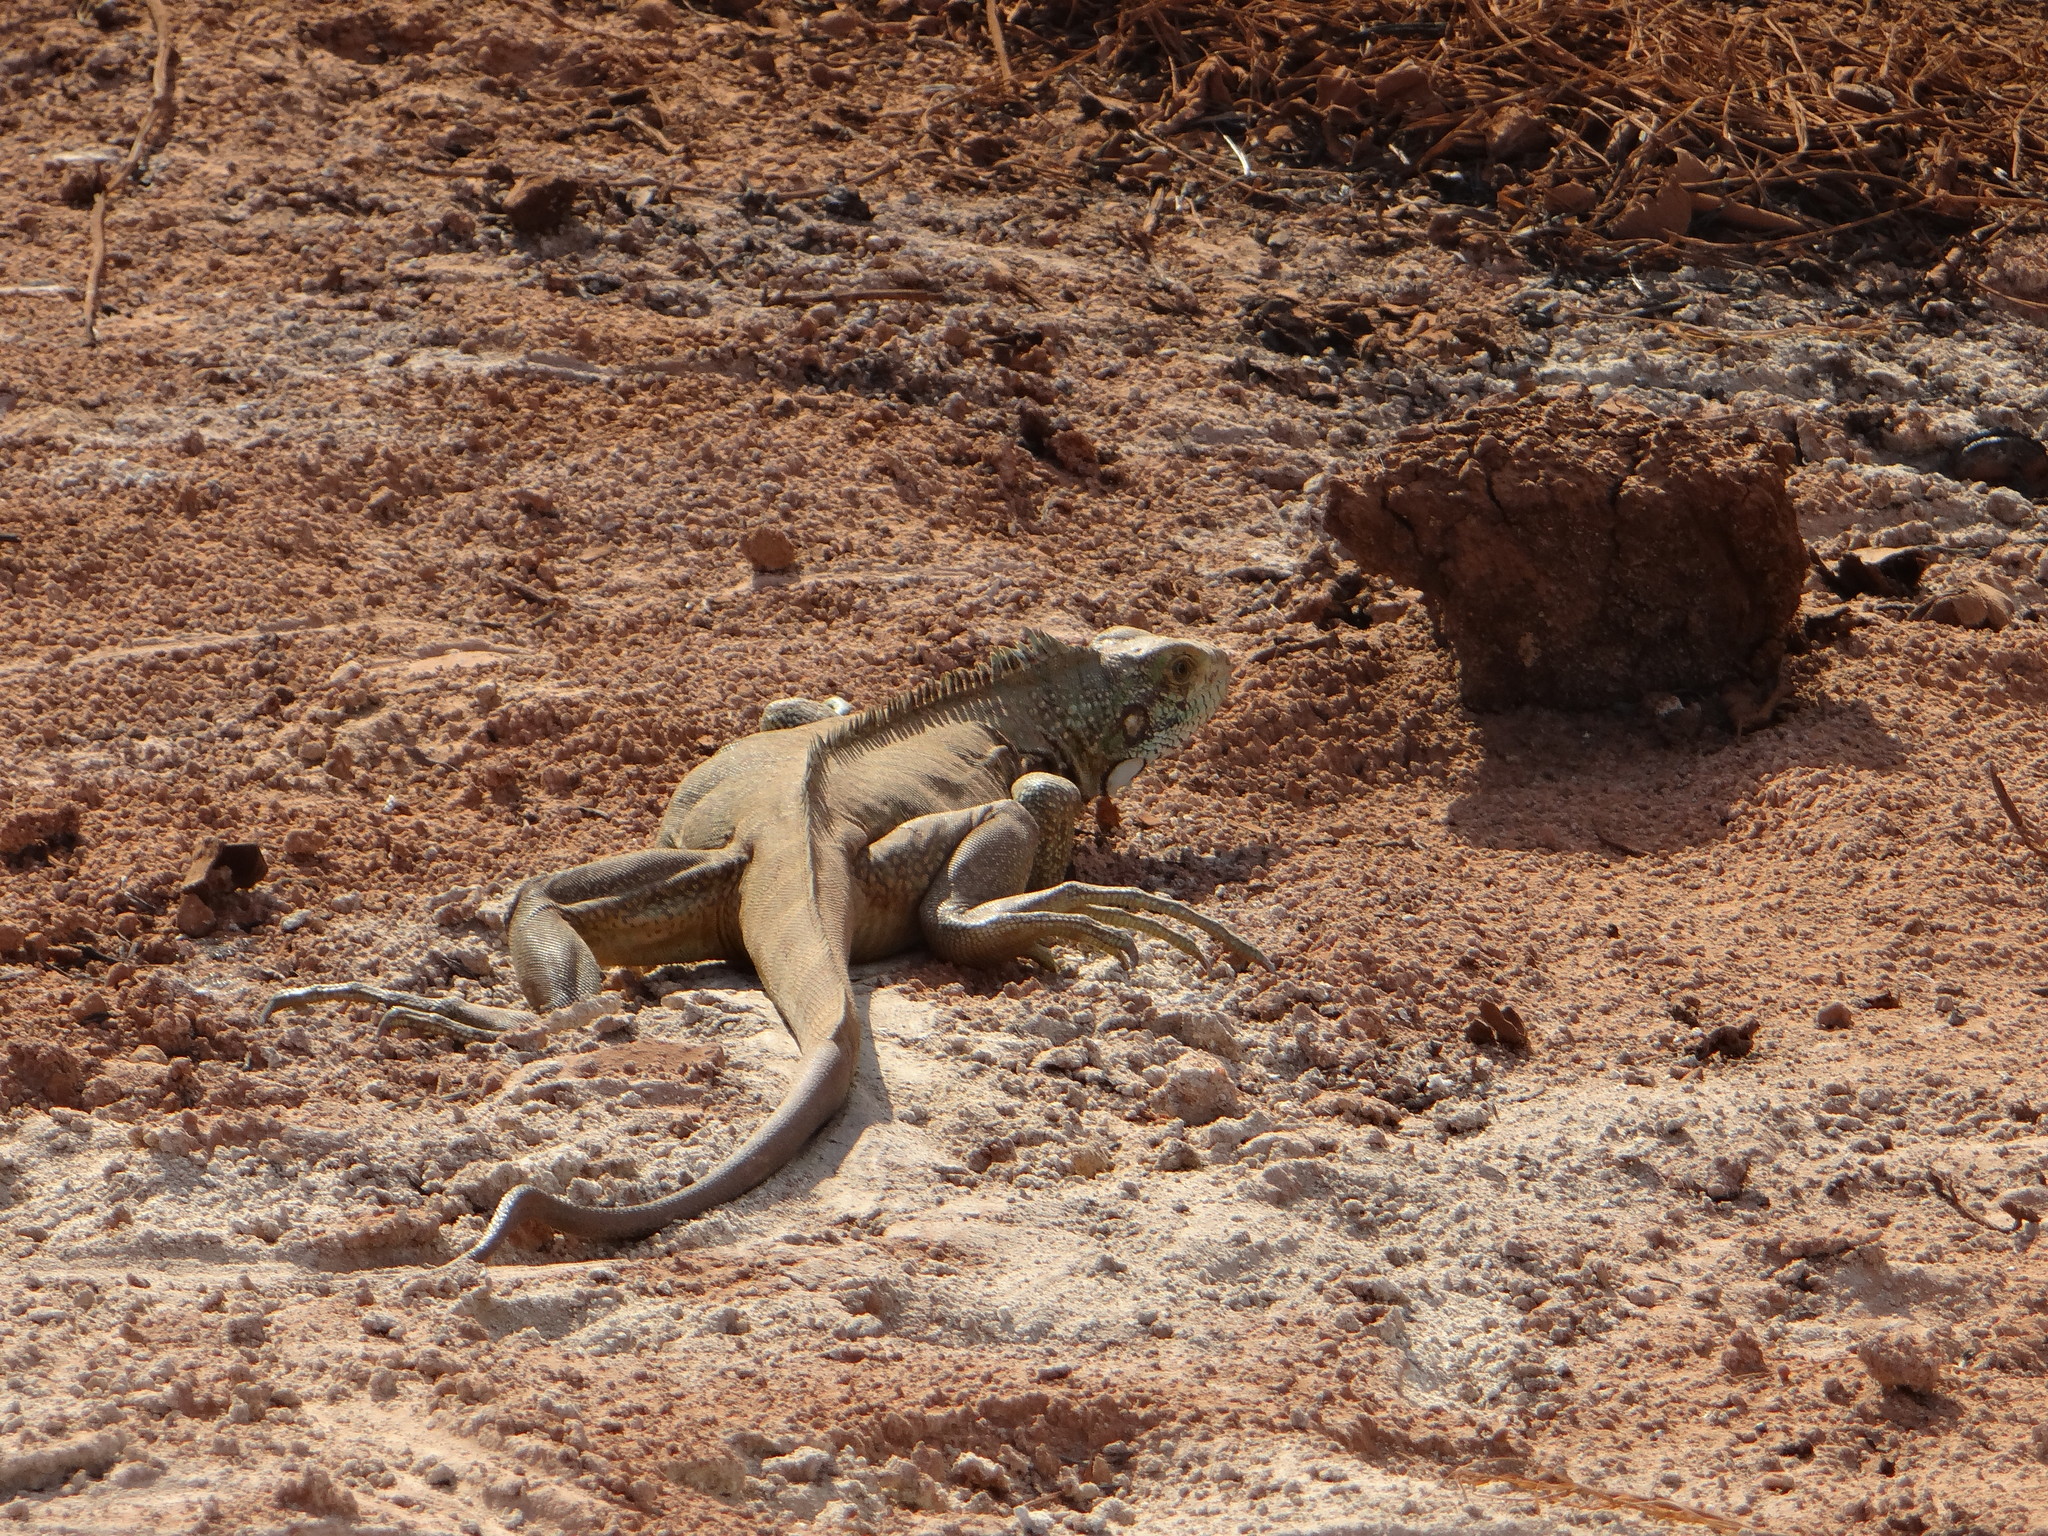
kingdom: Animalia
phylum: Chordata
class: Squamata
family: Iguanidae
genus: Iguana
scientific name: Iguana iguana
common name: Green iguana
